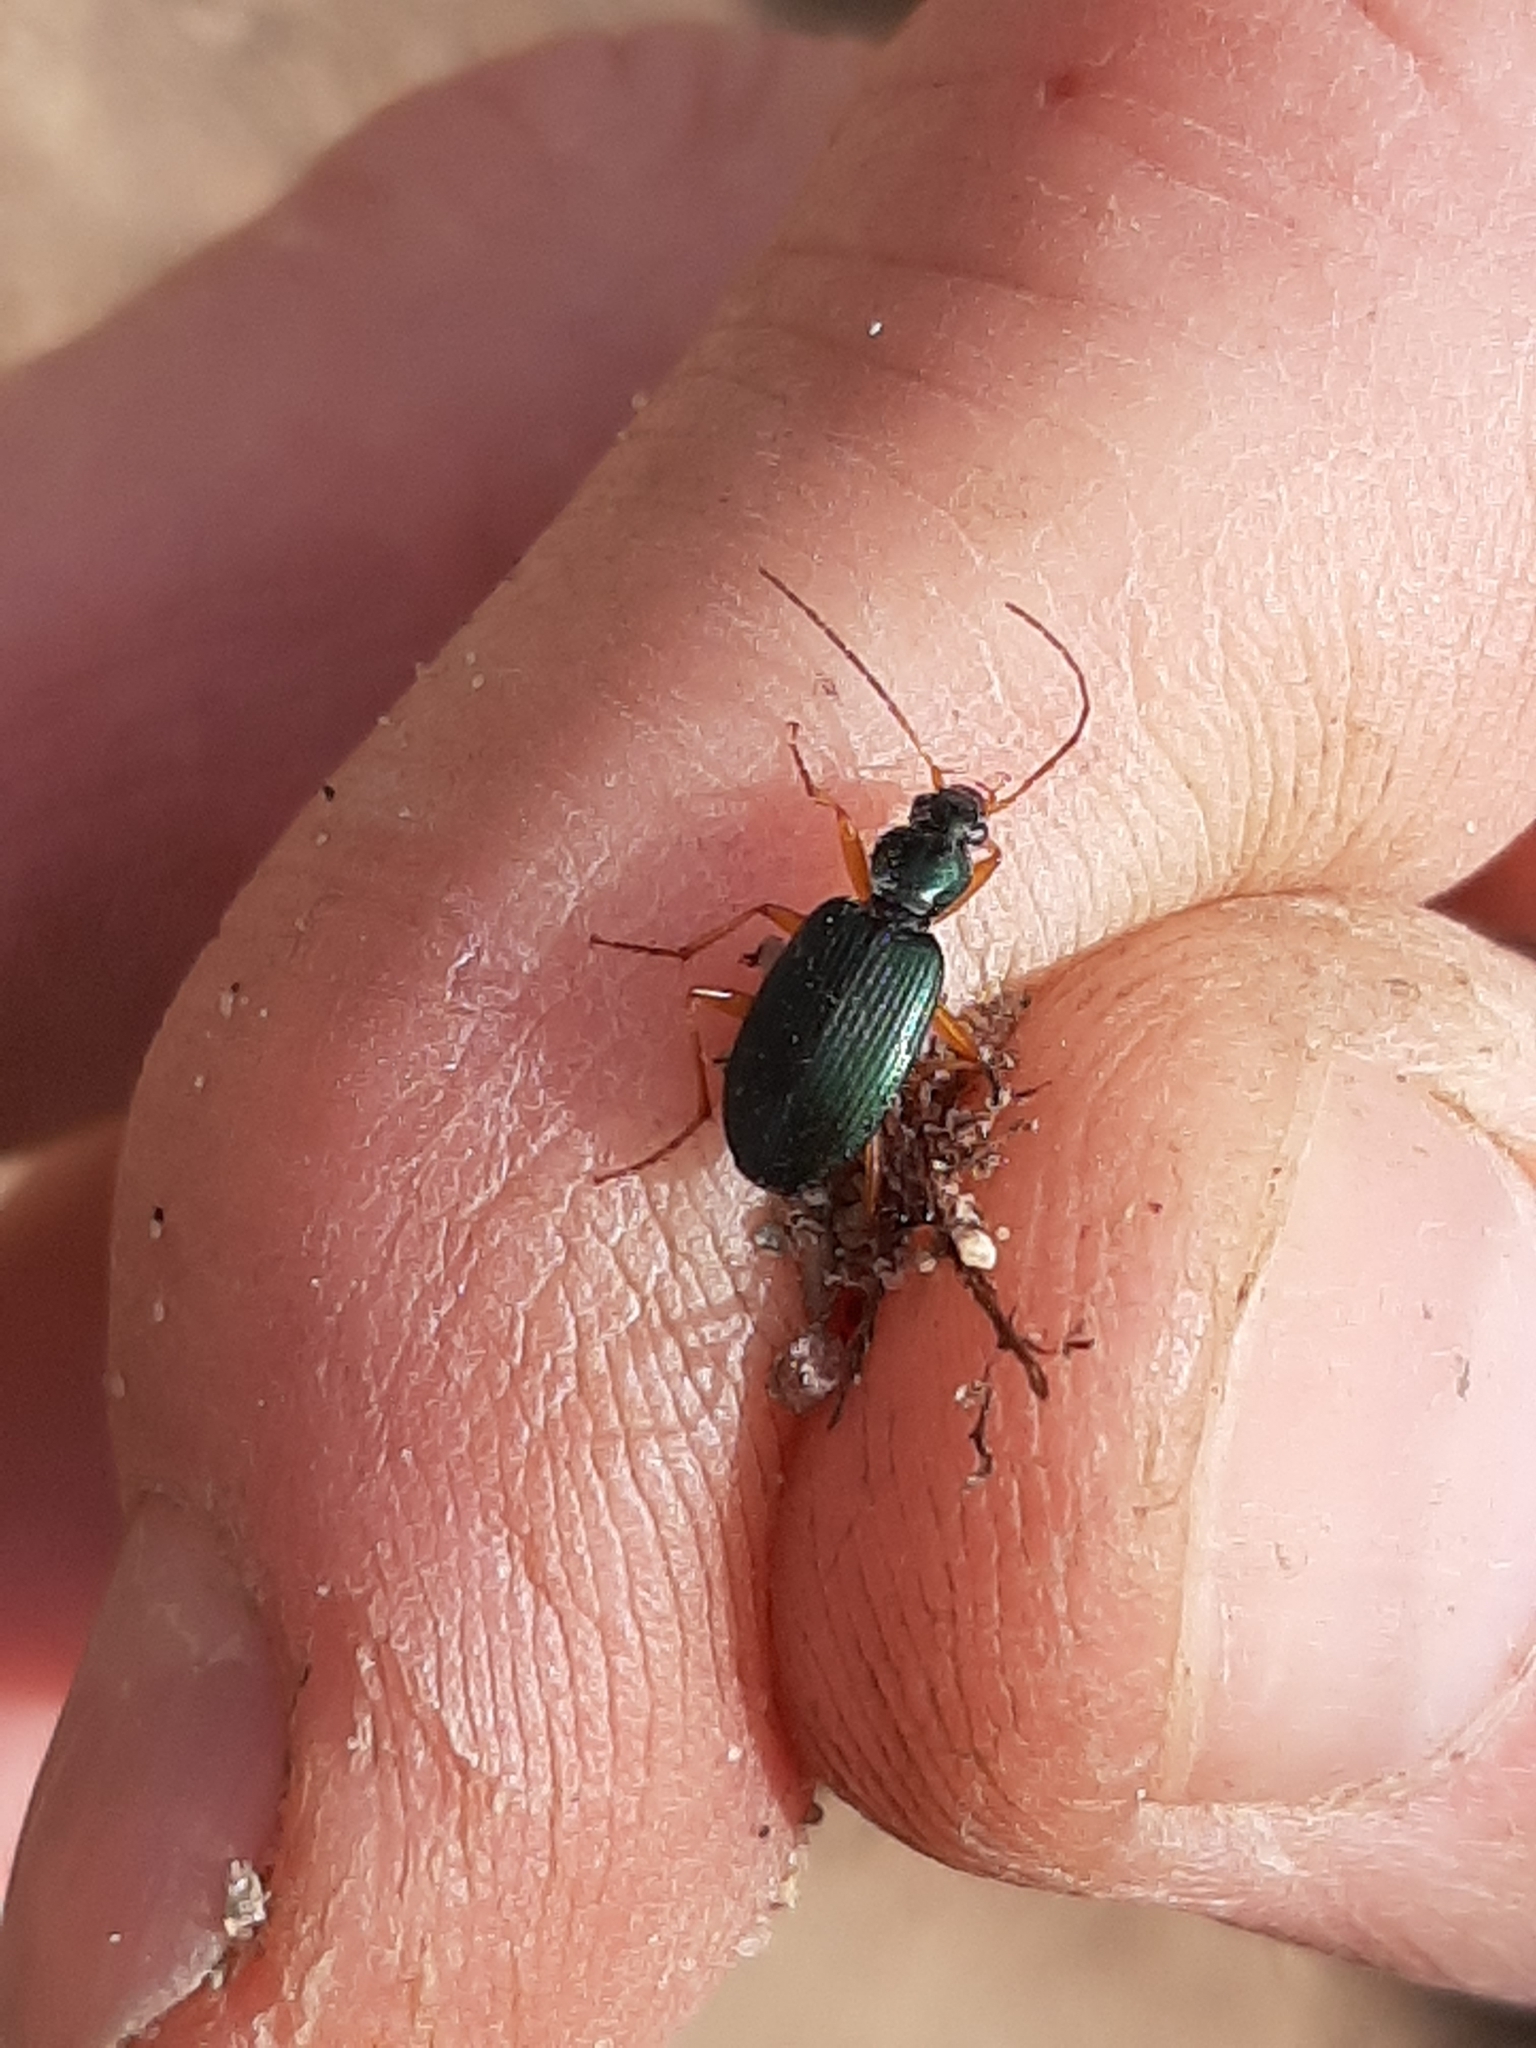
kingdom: Animalia
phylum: Arthropoda
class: Insecta
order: Coleoptera
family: Carabidae
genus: Agonum
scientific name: Agonum extensicolle
